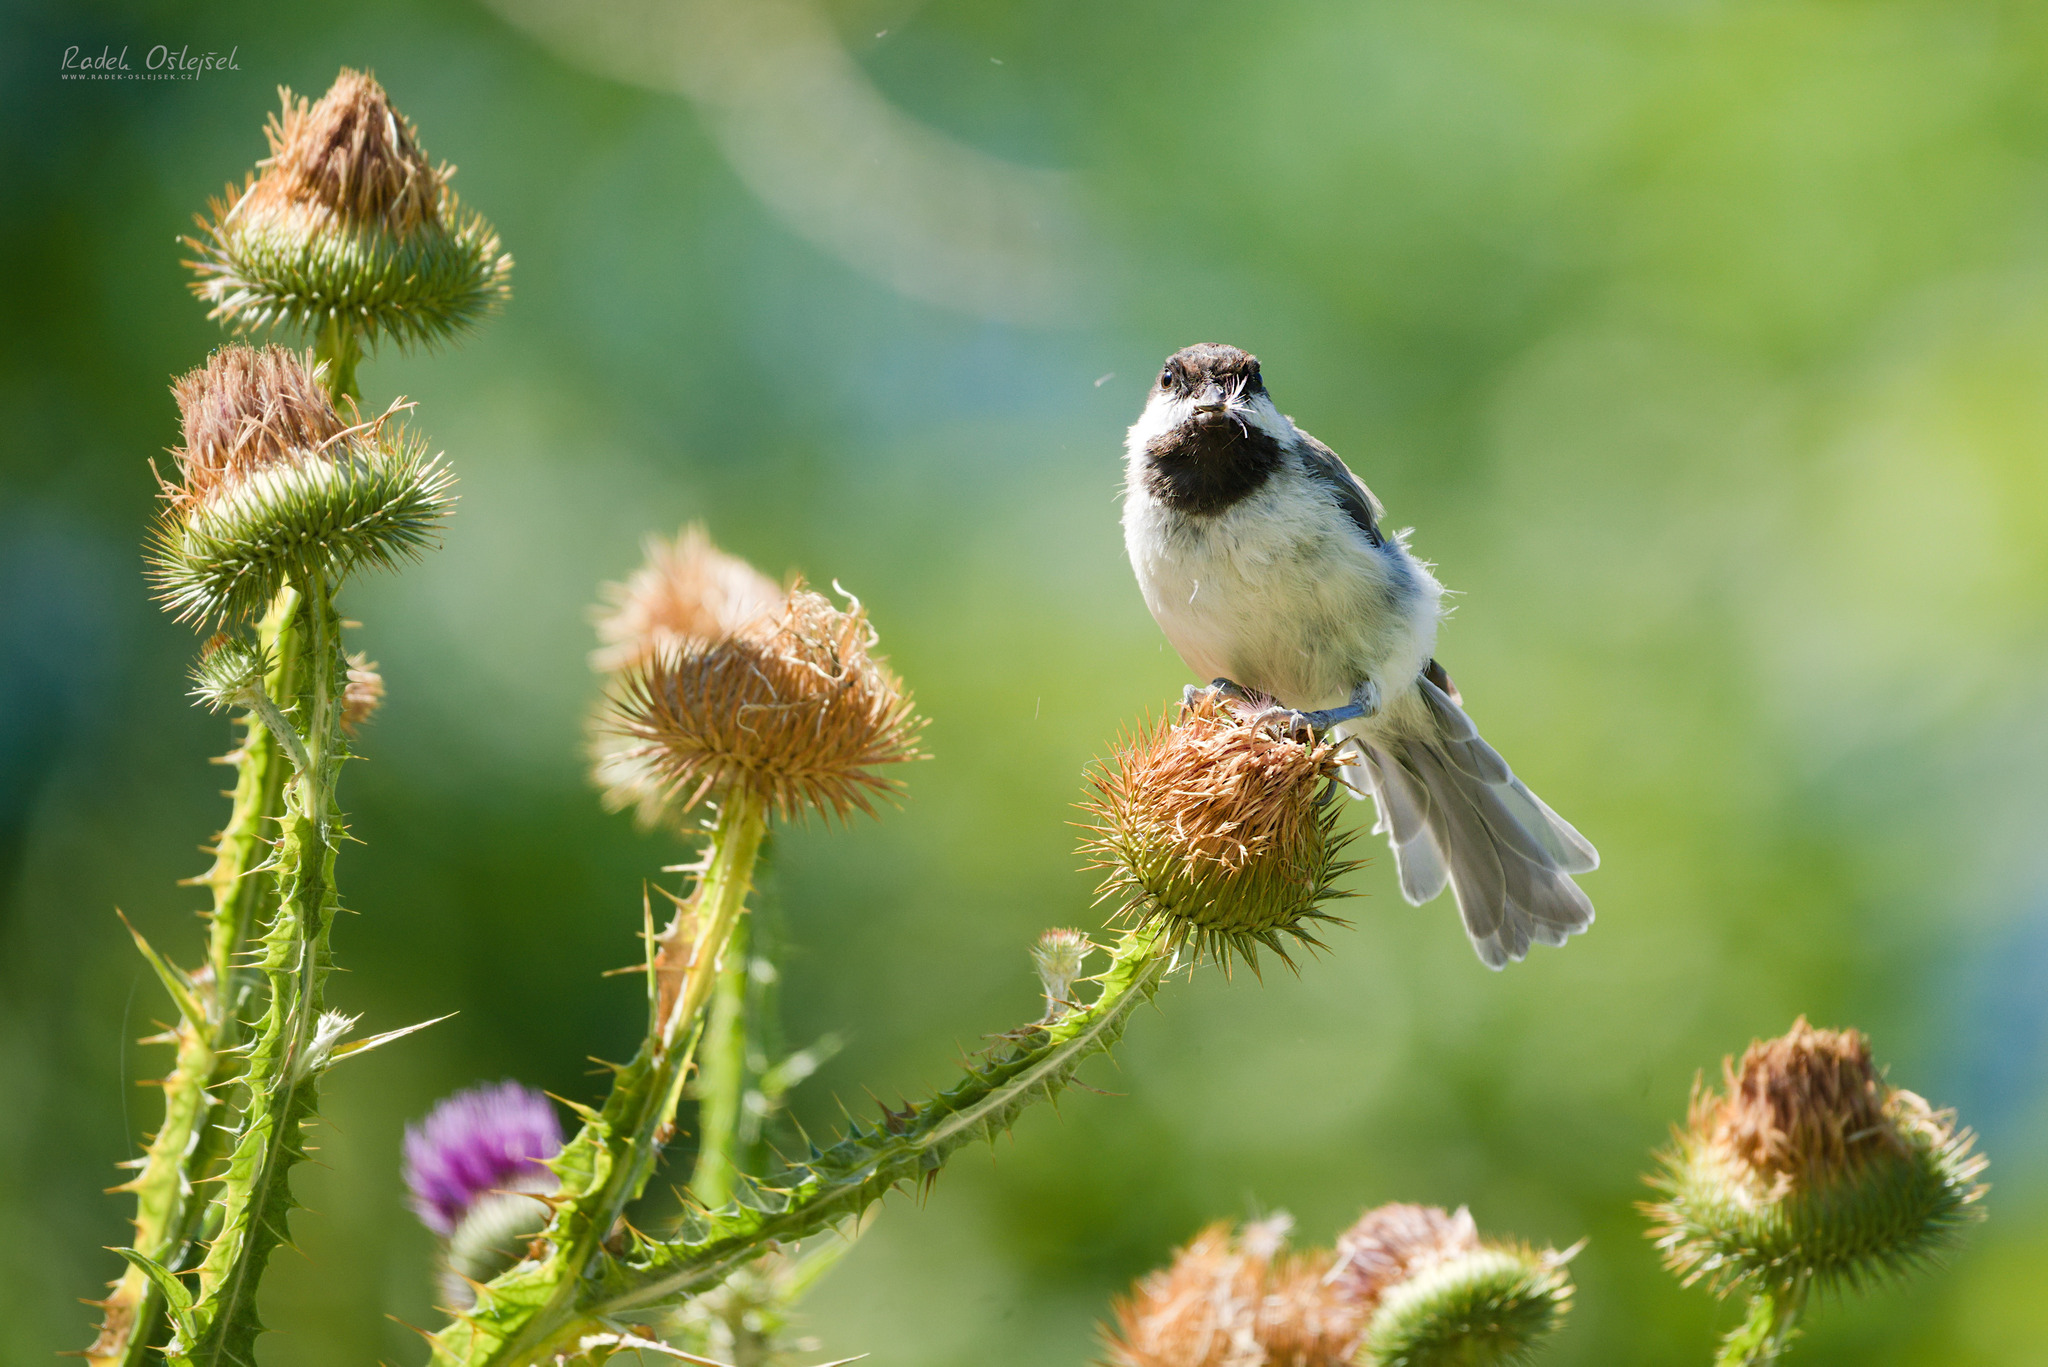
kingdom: Animalia
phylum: Chordata
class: Aves
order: Passeriformes
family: Paridae
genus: Poecile
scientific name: Poecile lugubris
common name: Sombre tit
